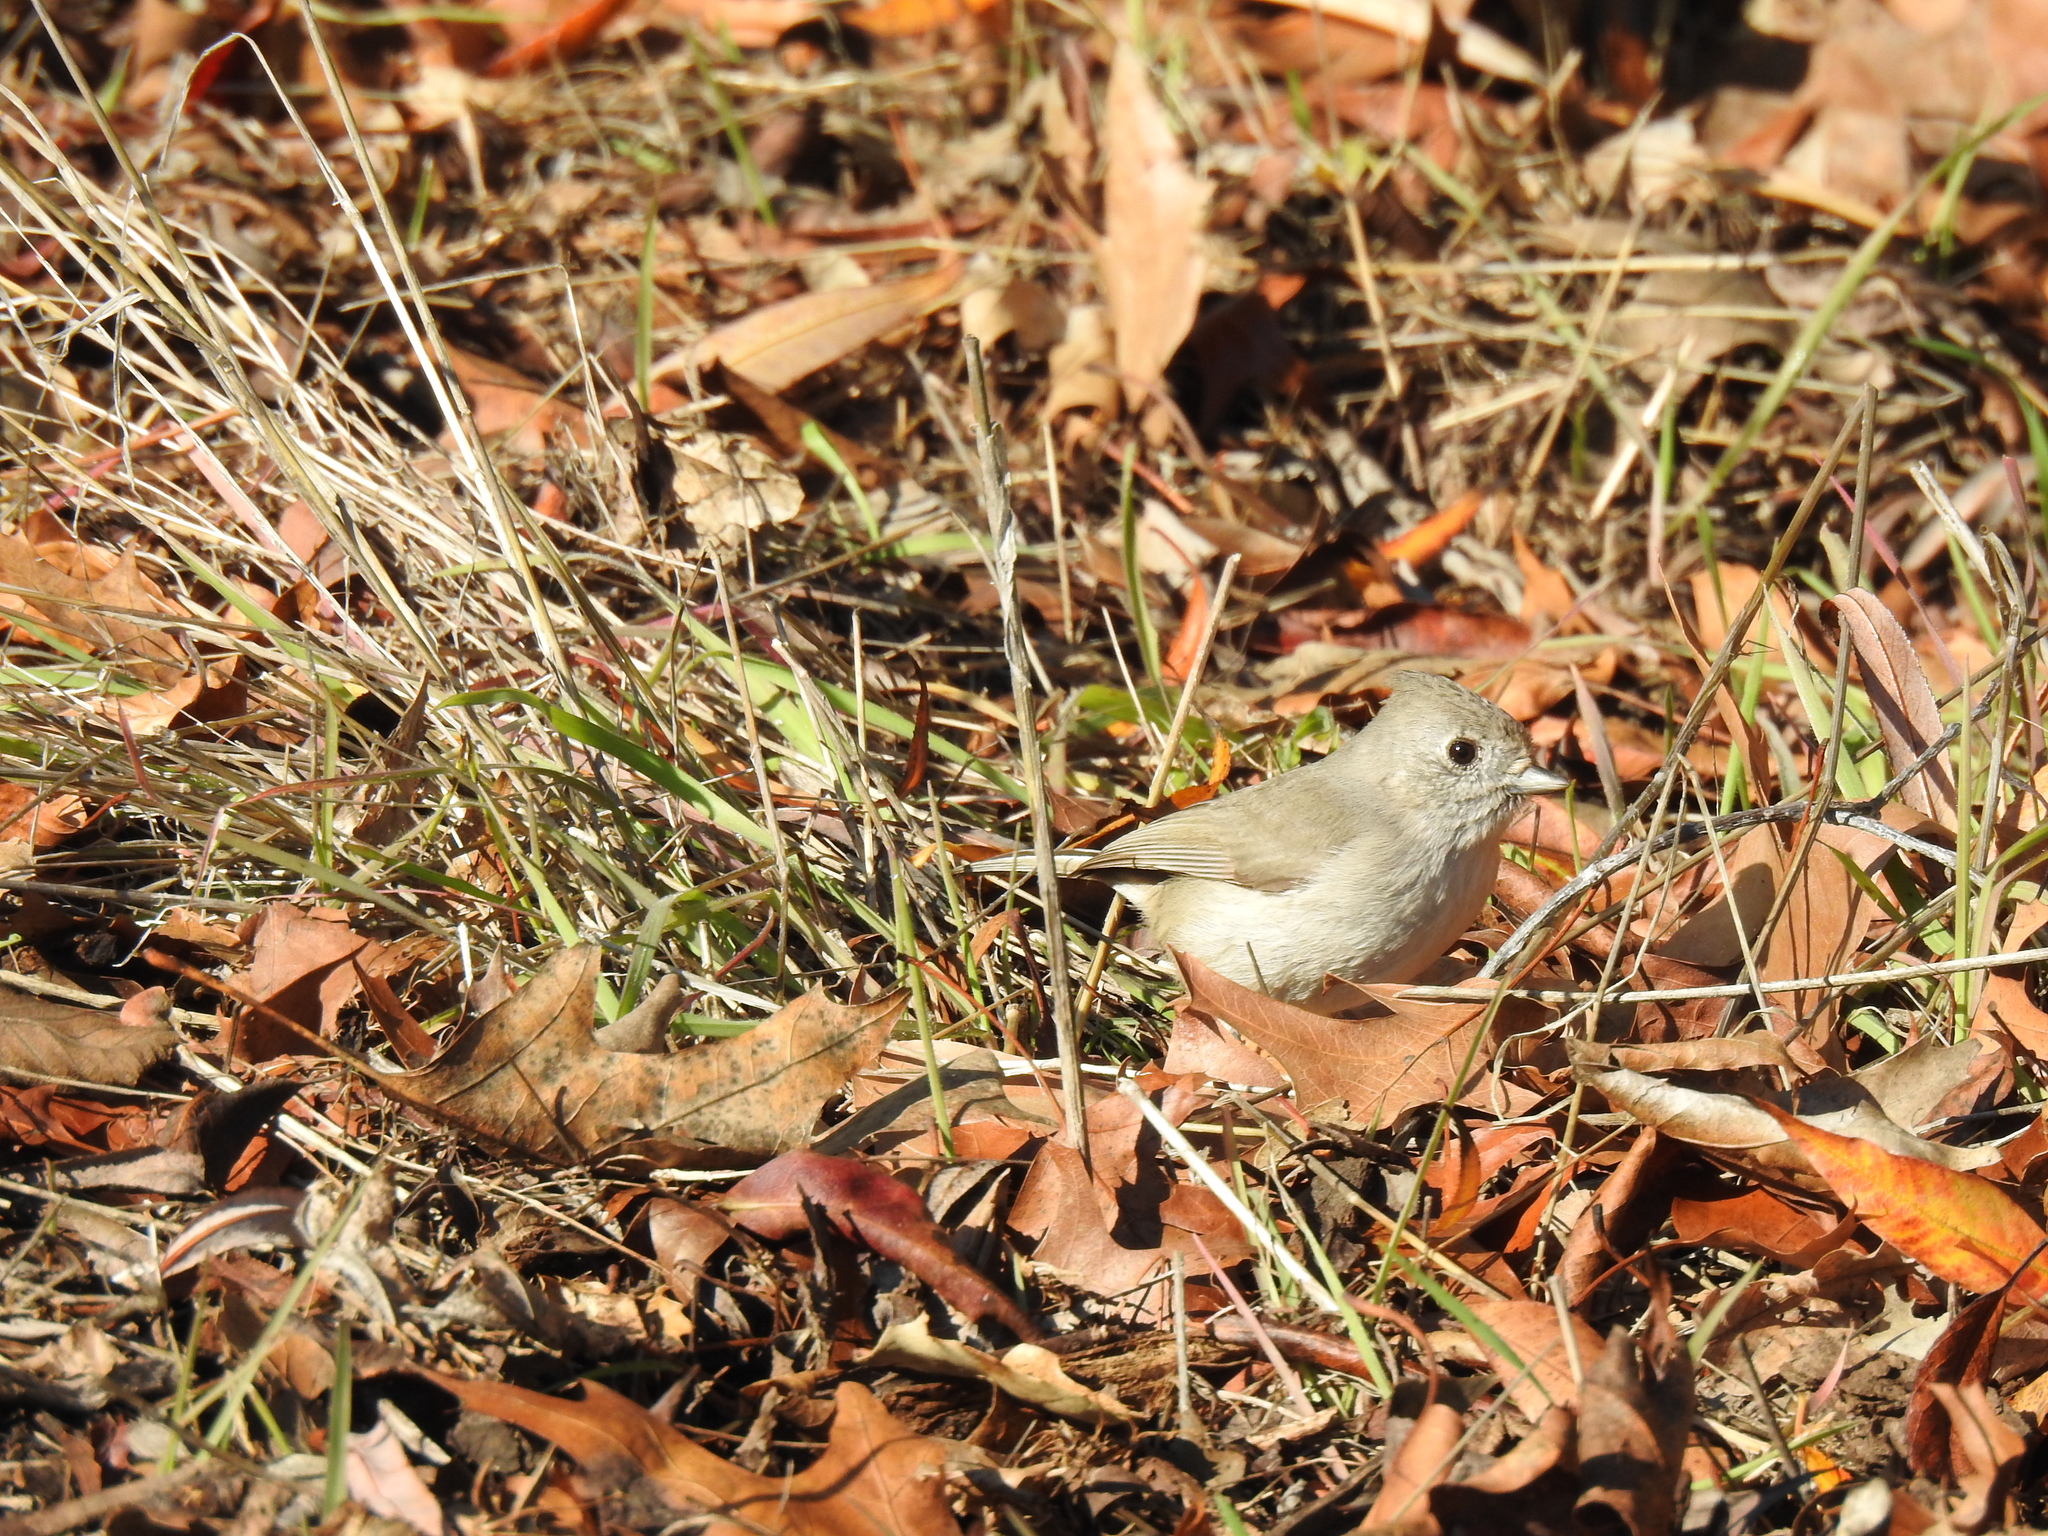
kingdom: Animalia
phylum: Chordata
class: Aves
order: Passeriformes
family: Paridae
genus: Baeolophus
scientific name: Baeolophus inornatus
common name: Oak titmouse
